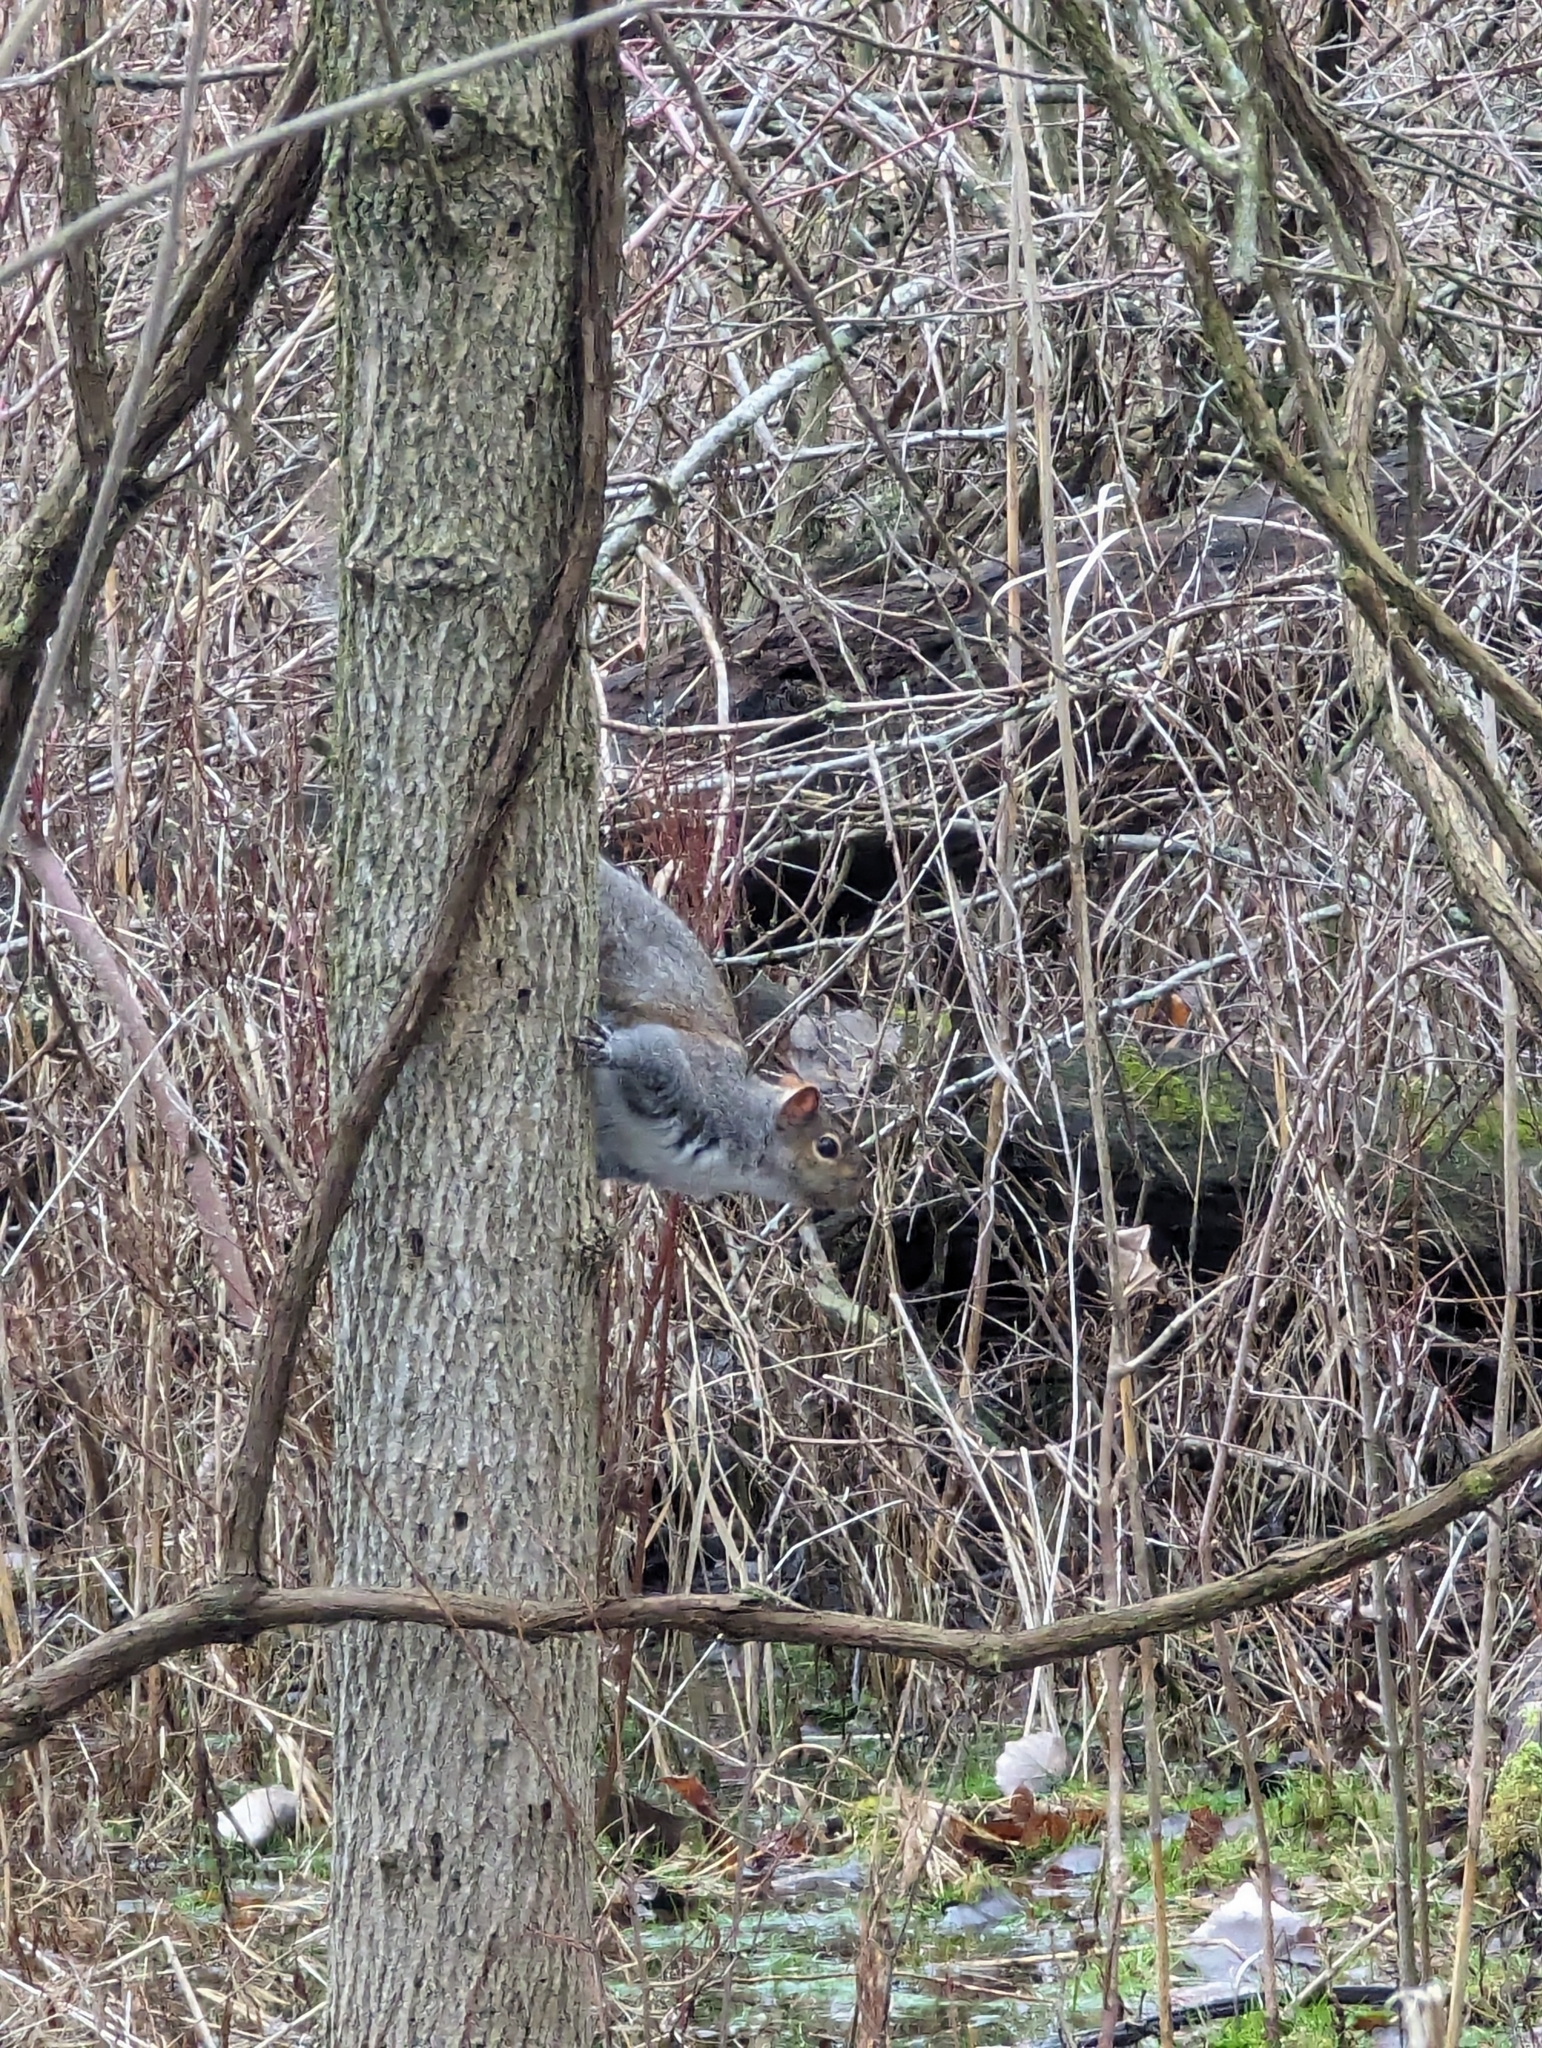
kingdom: Animalia
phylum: Chordata
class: Mammalia
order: Rodentia
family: Sciuridae
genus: Sciurus
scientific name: Sciurus carolinensis
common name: Eastern gray squirrel
